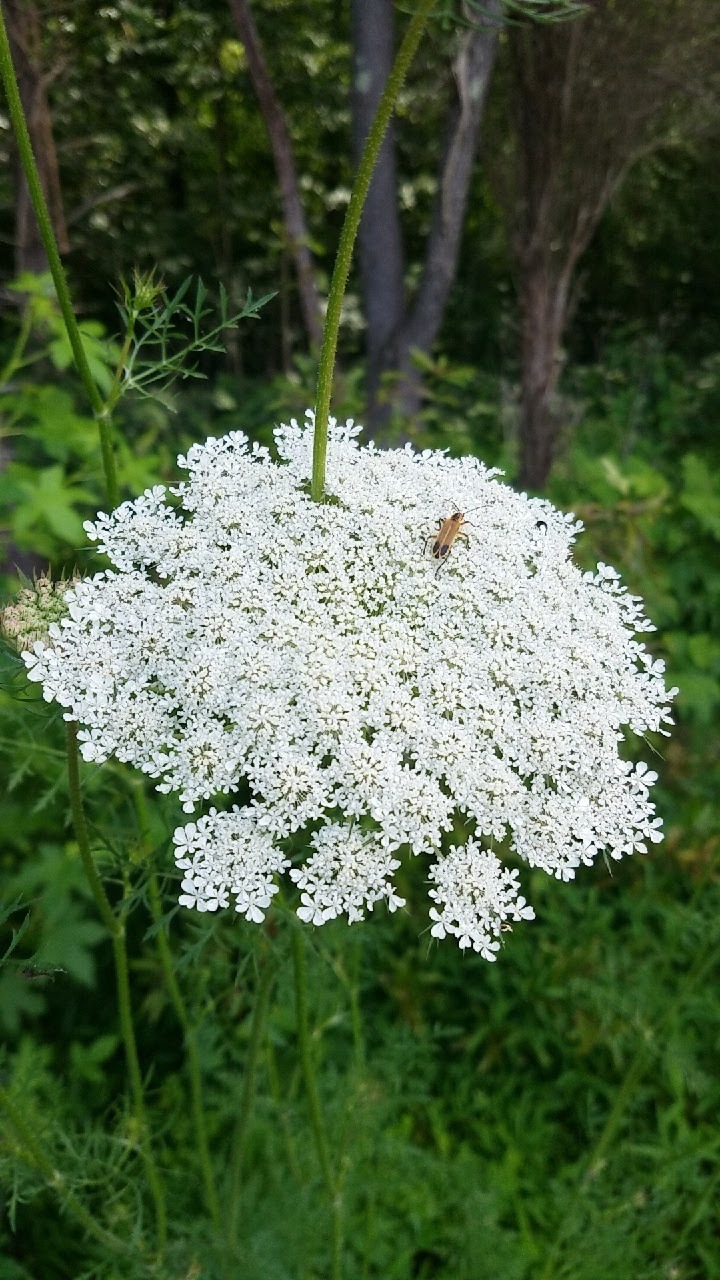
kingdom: Plantae
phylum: Tracheophyta
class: Magnoliopsida
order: Apiales
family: Apiaceae
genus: Daucus
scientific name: Daucus carota
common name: Wild carrot
